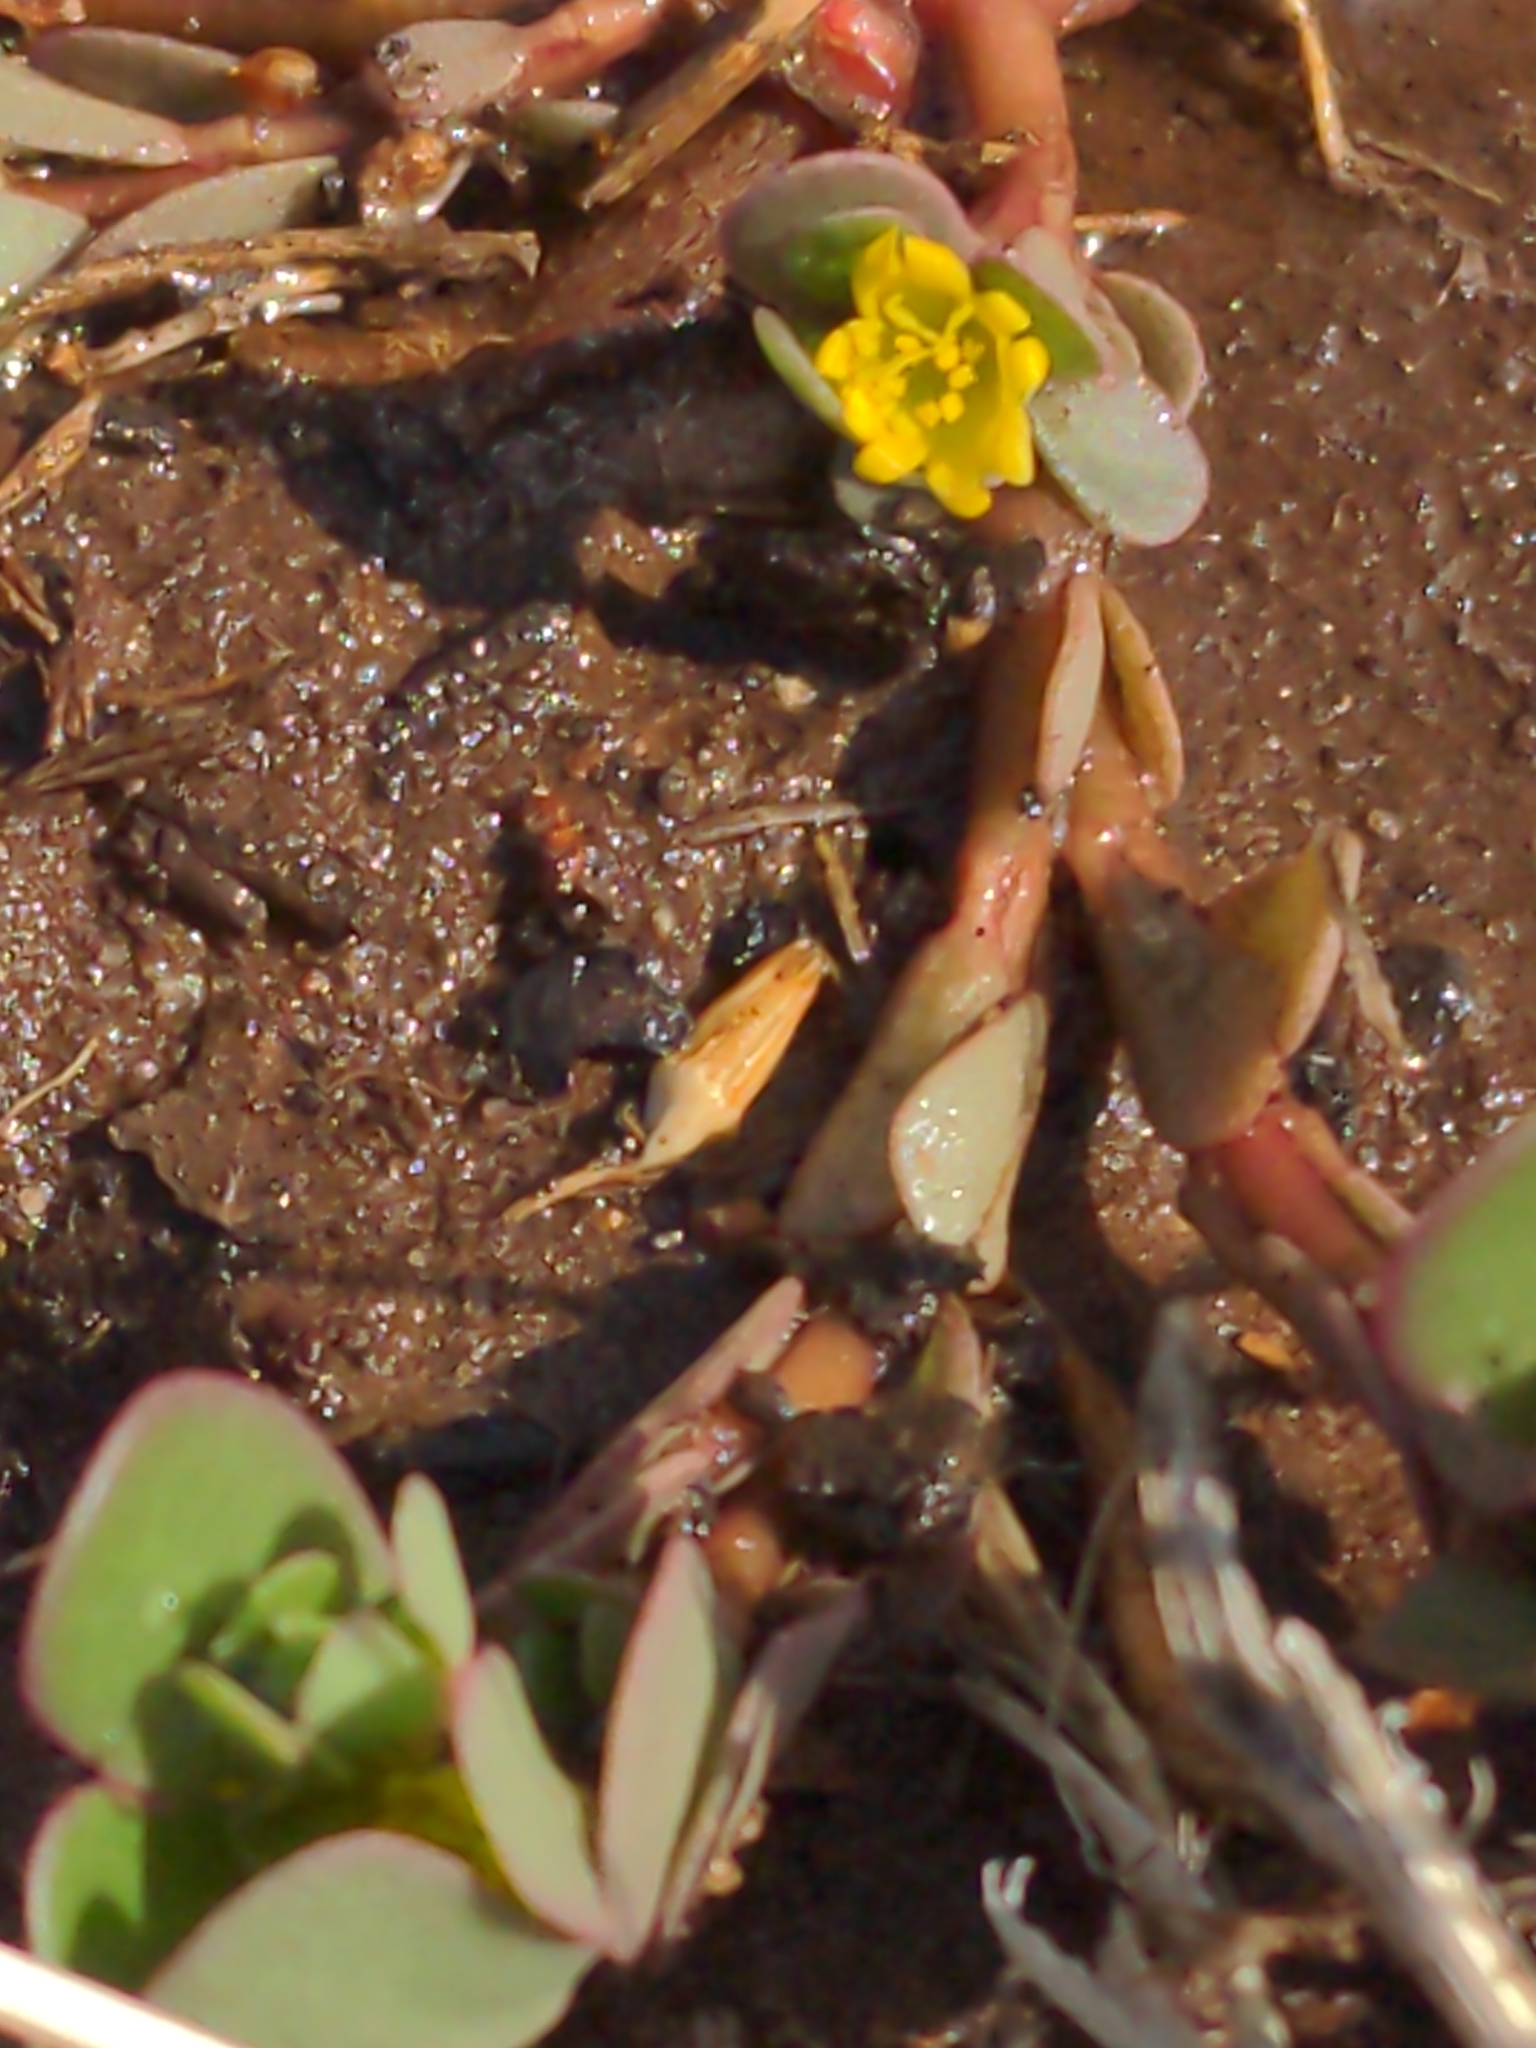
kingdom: Plantae
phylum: Tracheophyta
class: Magnoliopsida
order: Caryophyllales
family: Portulacaceae
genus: Portulaca
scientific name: Portulaca oleracea
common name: Common purslane
